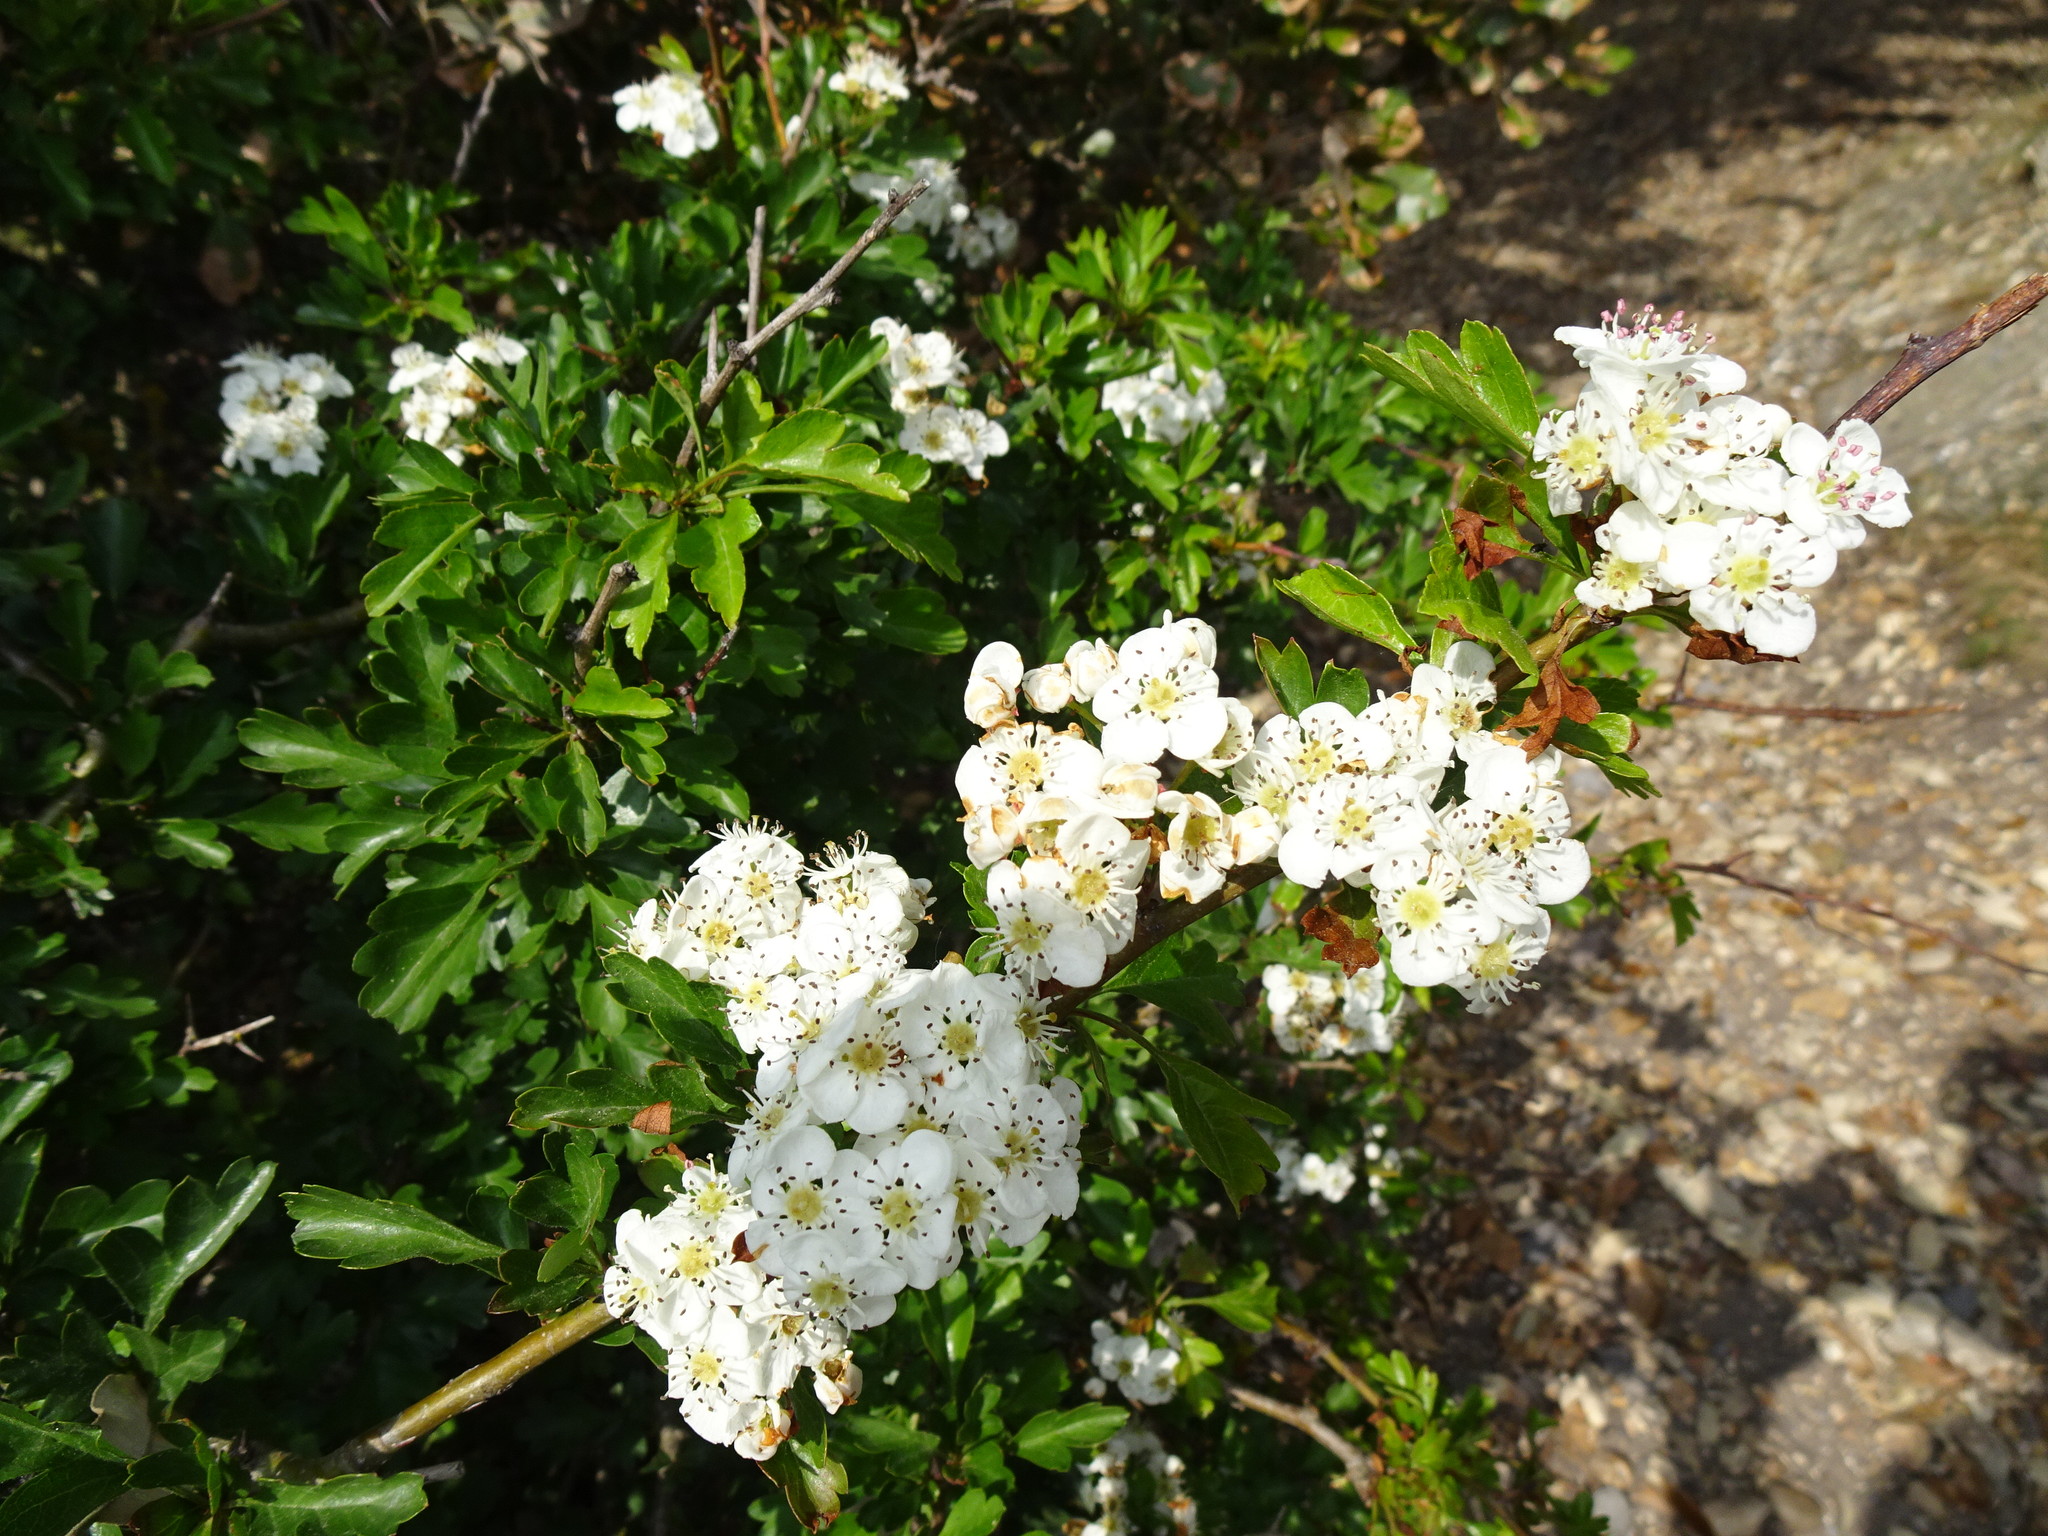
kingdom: Plantae
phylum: Tracheophyta
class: Magnoliopsida
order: Rosales
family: Rosaceae
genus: Crataegus
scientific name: Crataegus monogyna
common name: Hawthorn
